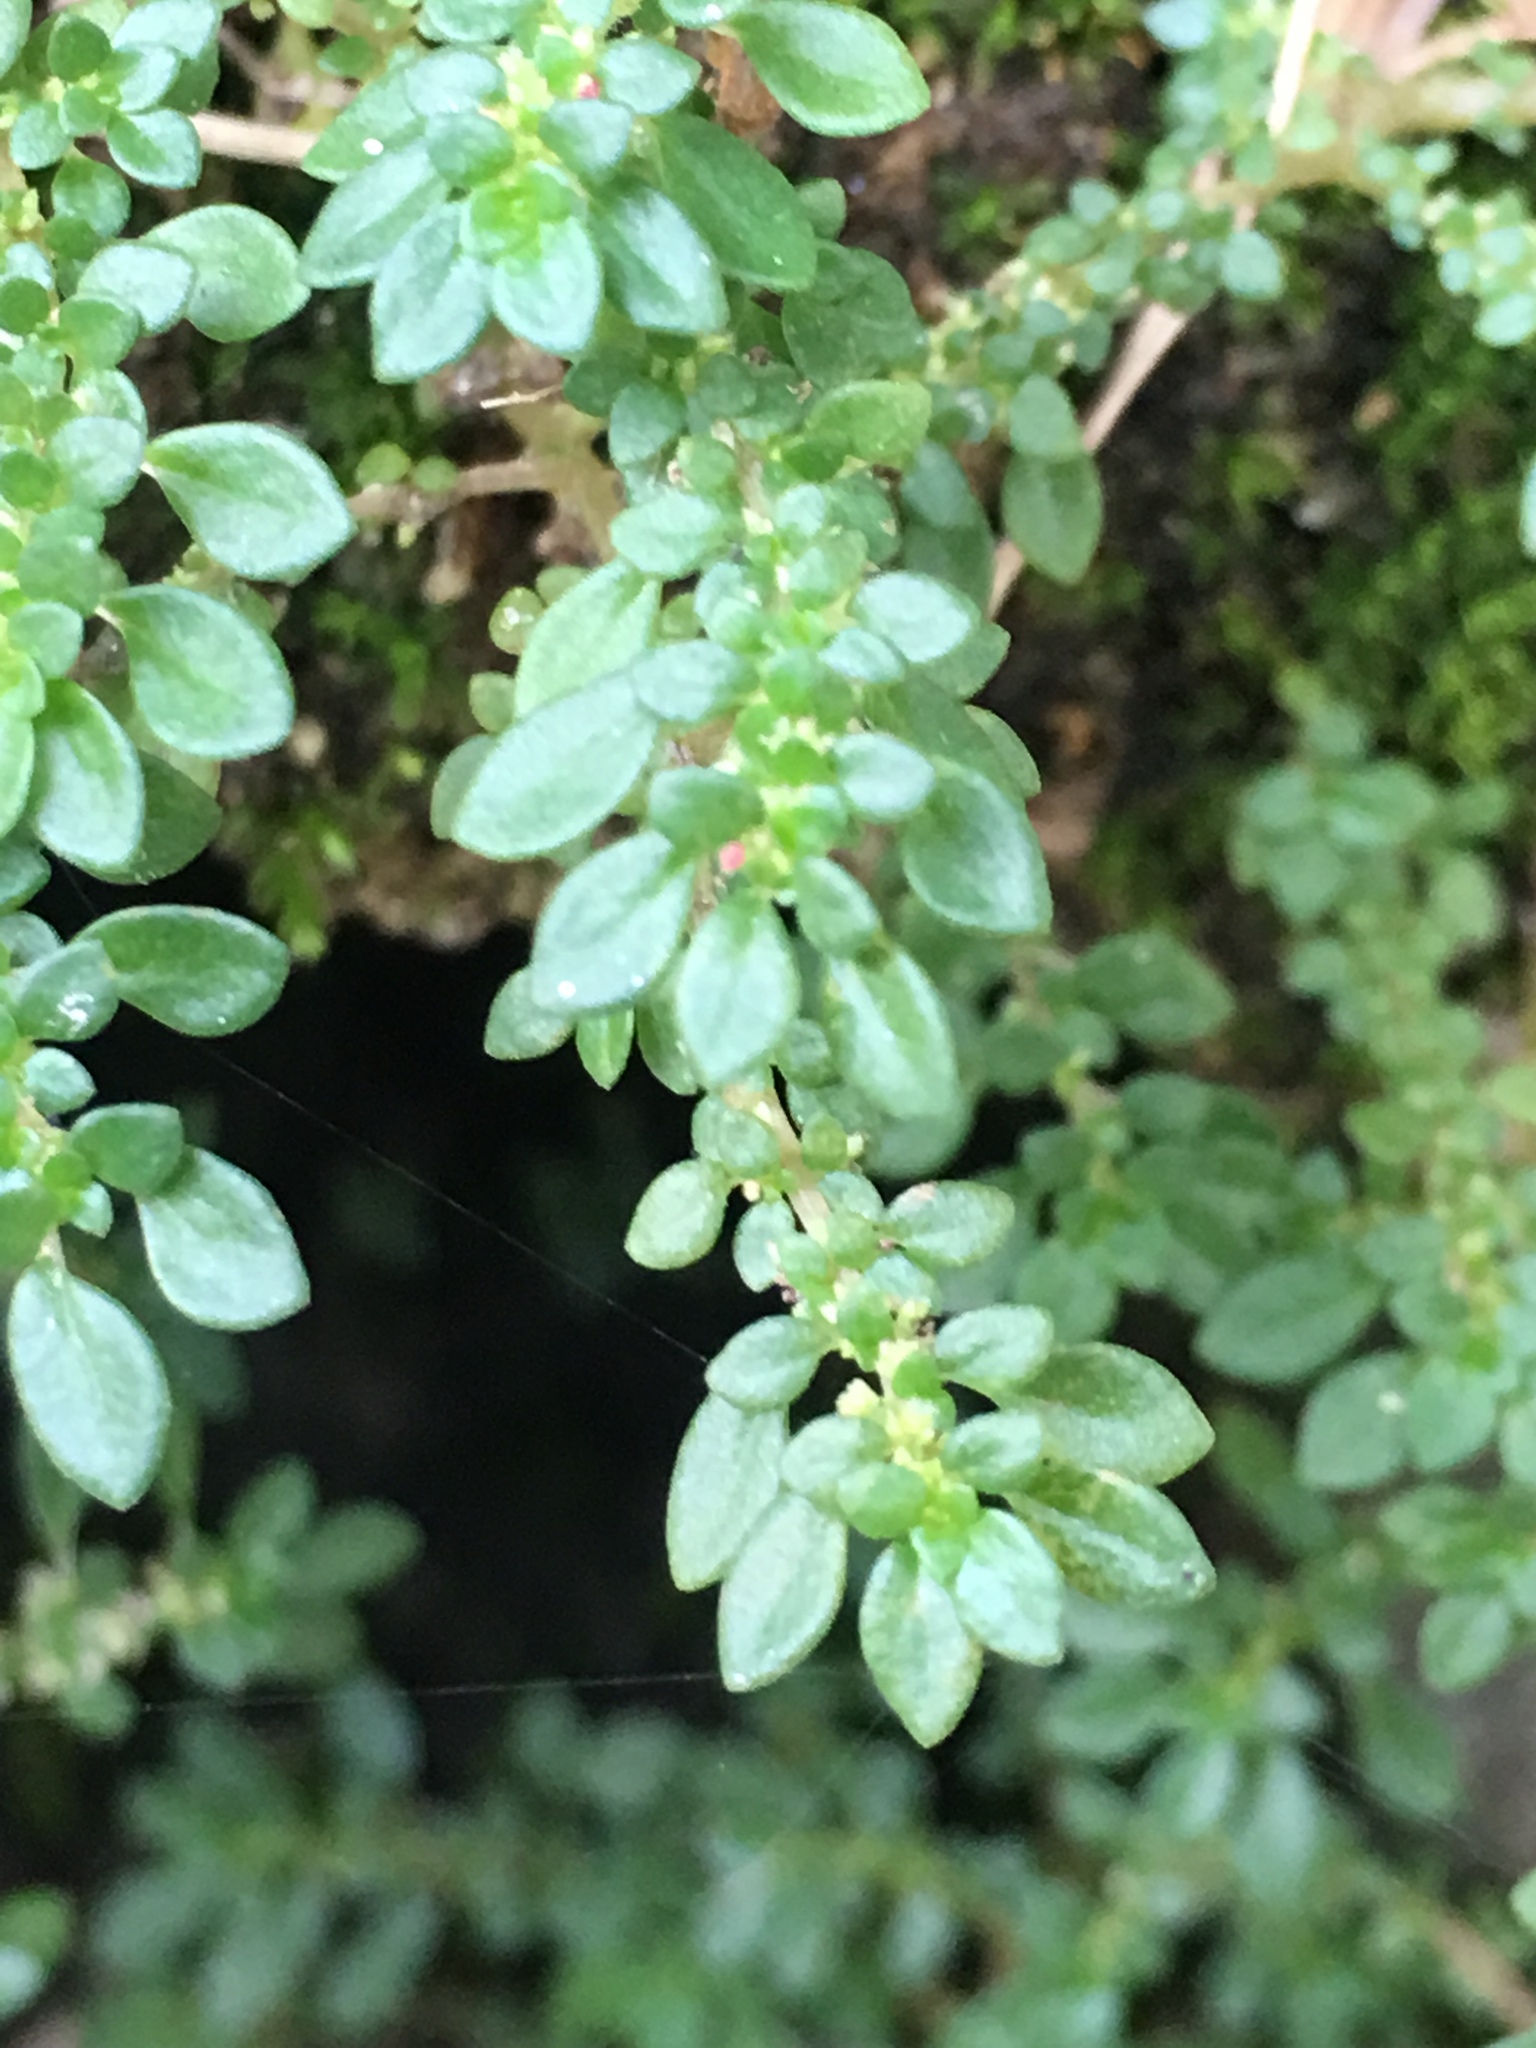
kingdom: Plantae
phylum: Tracheophyta
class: Magnoliopsida
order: Rosales
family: Urticaceae
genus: Pilea
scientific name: Pilea microphylla
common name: Artillery-plant
